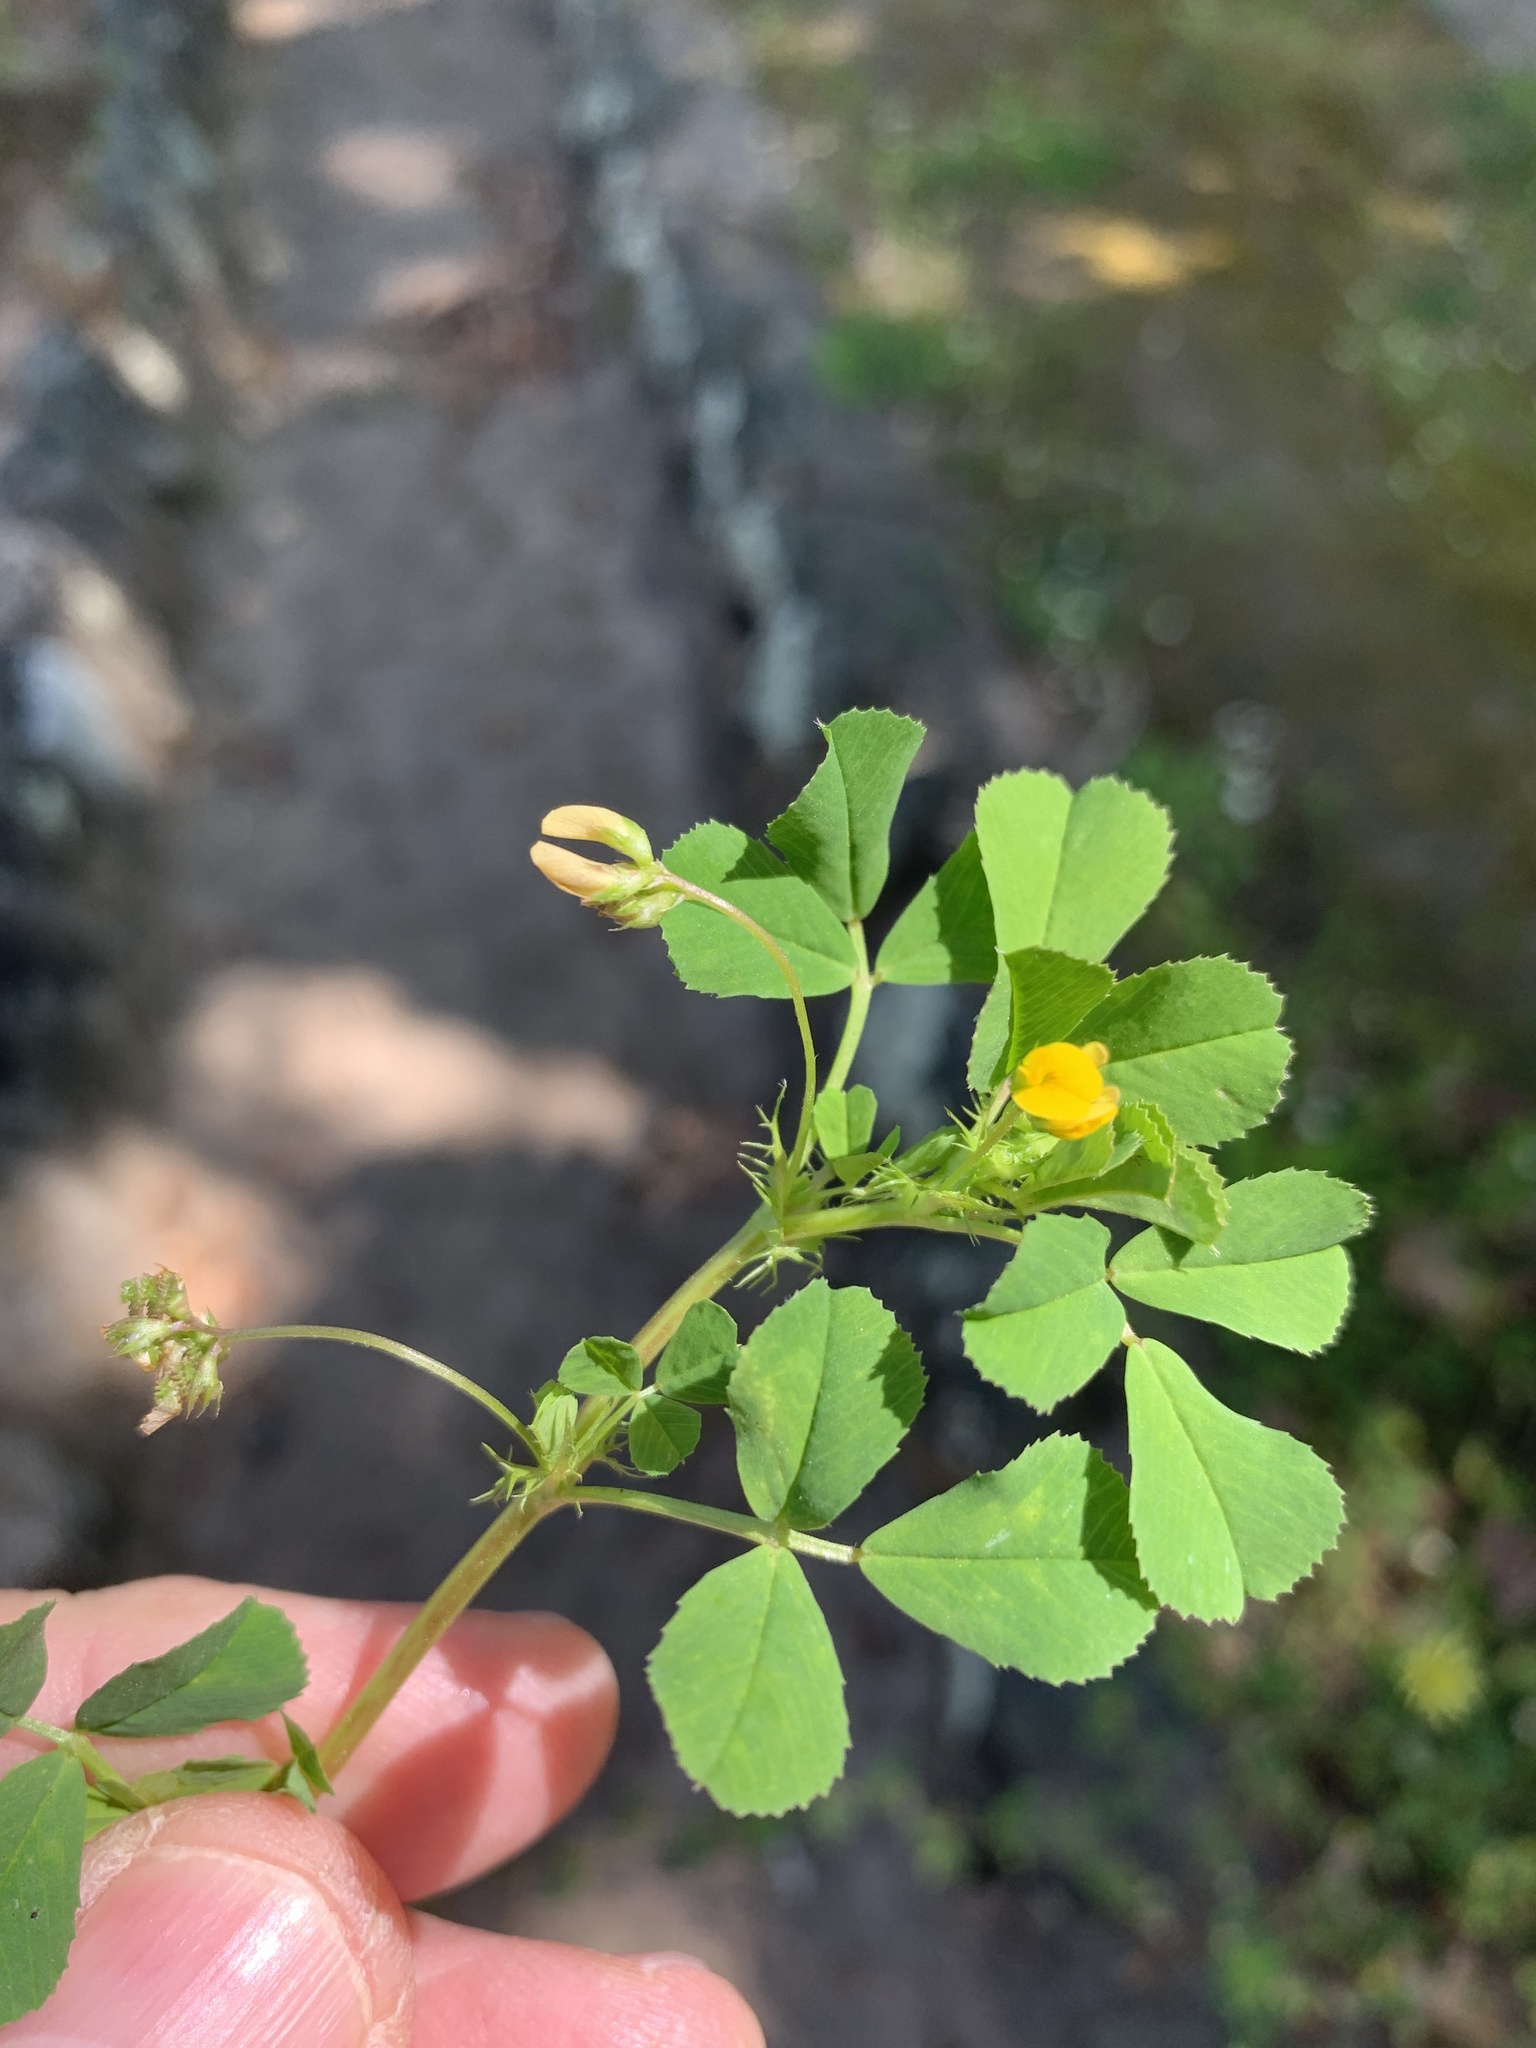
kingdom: Plantae
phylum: Tracheophyta
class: Magnoliopsida
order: Fabales
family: Fabaceae
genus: Medicago
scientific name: Medicago polymorpha
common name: Burclover
